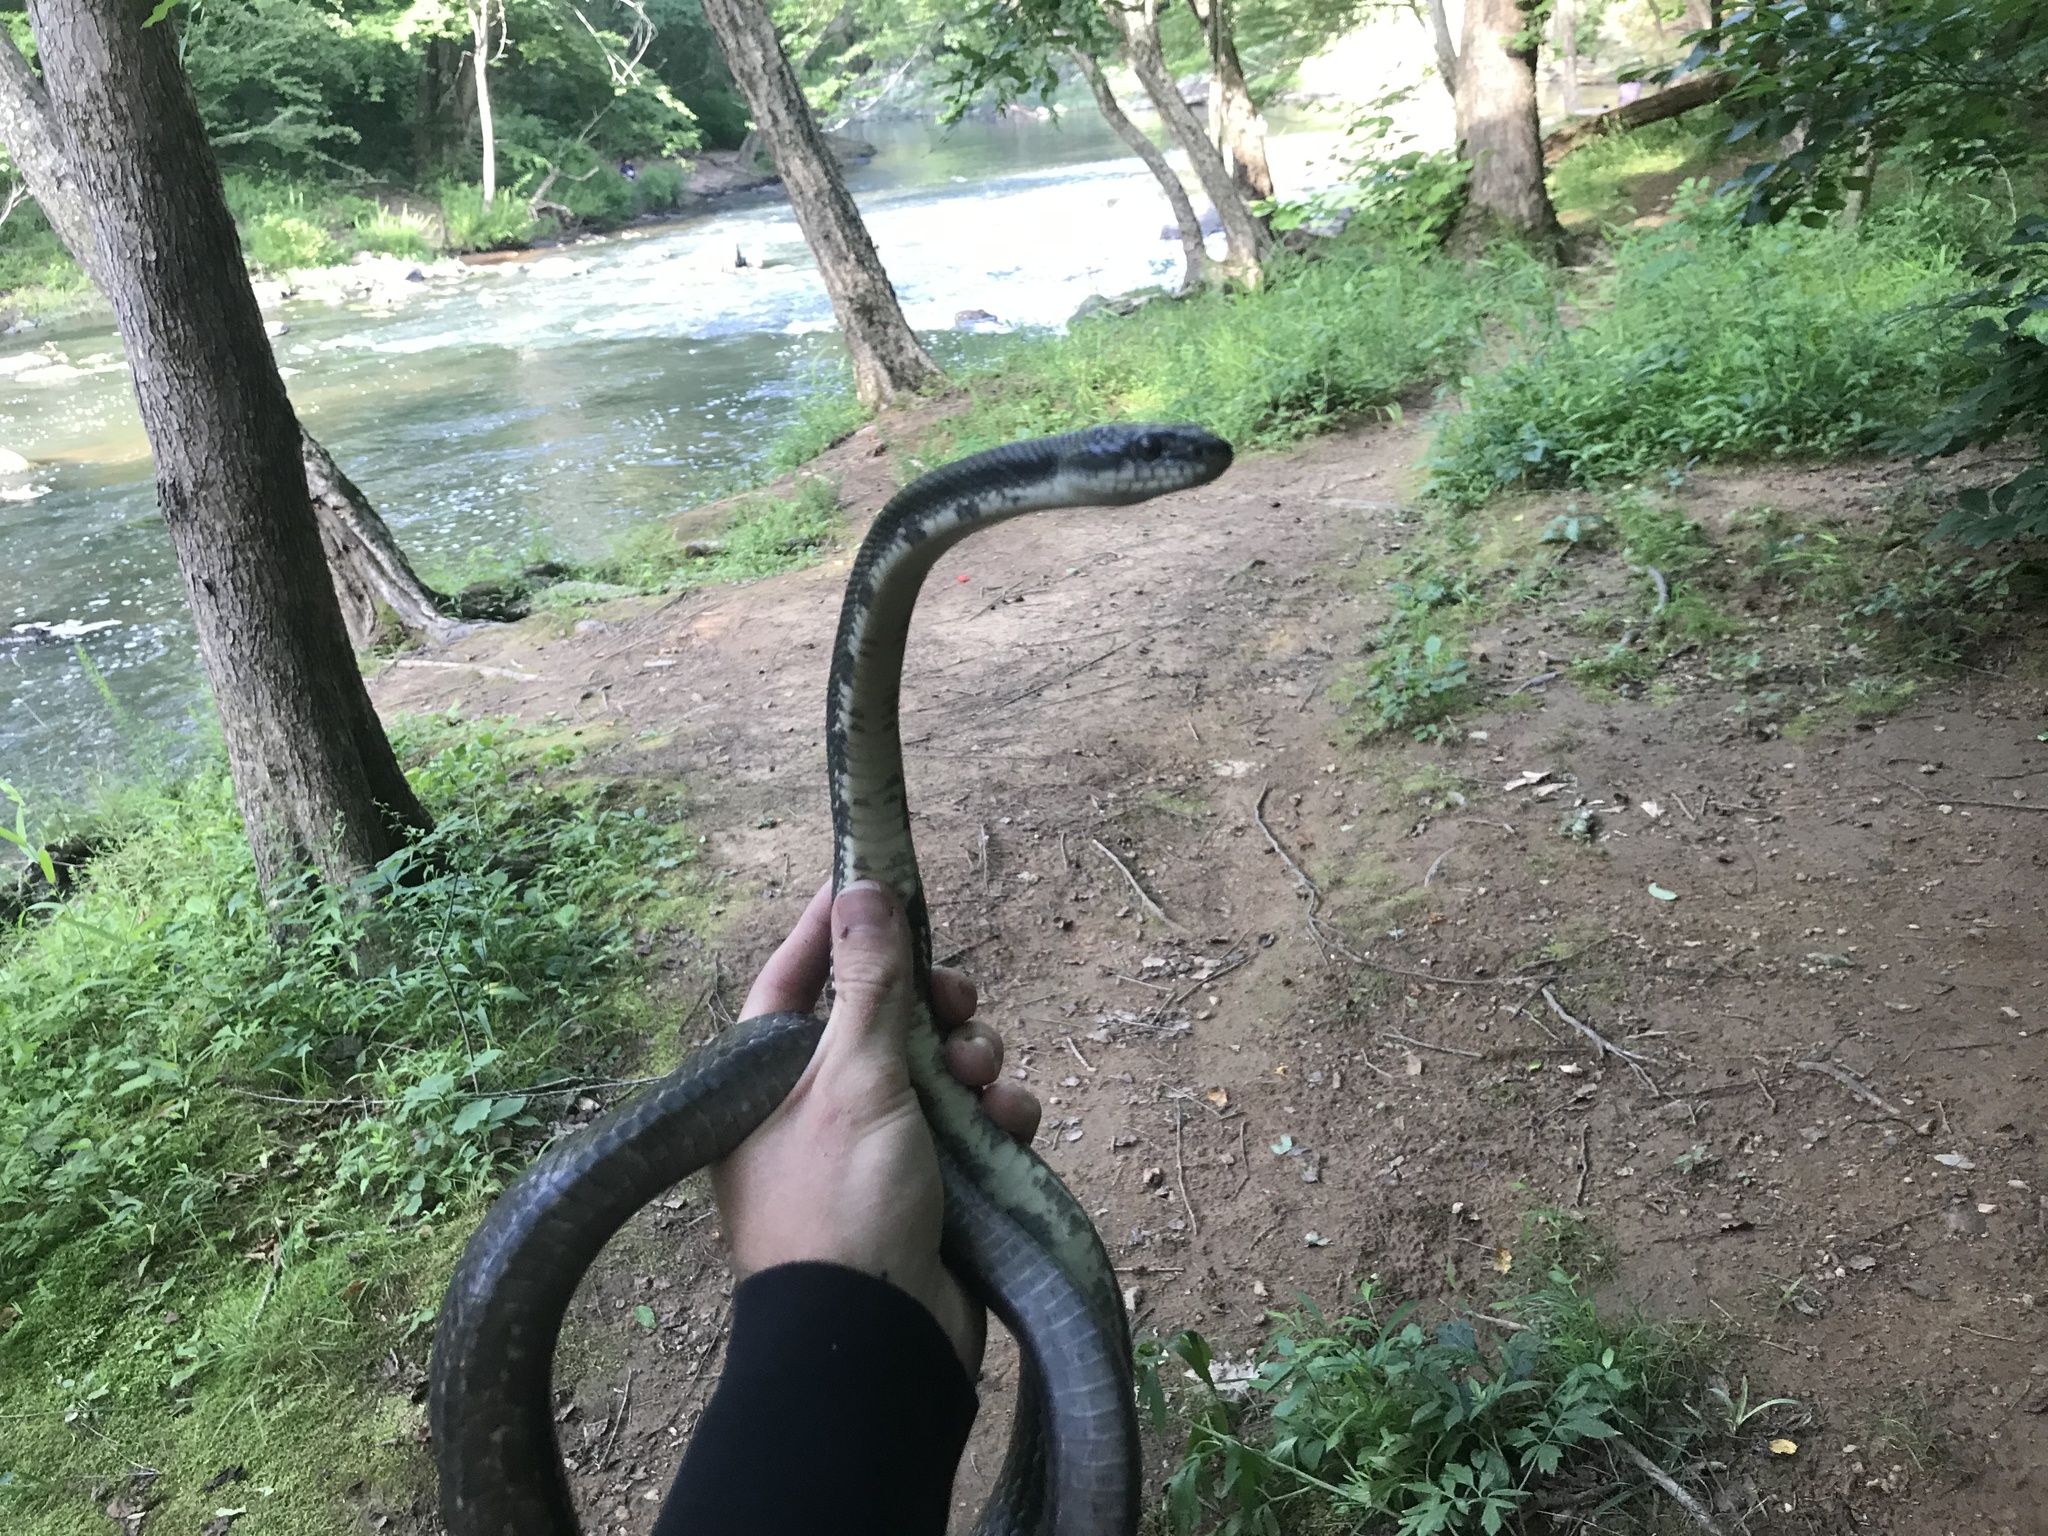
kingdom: Animalia
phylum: Chordata
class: Squamata
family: Colubridae
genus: Pantherophis
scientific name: Pantherophis alleghaniensis
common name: Eastern rat snake
